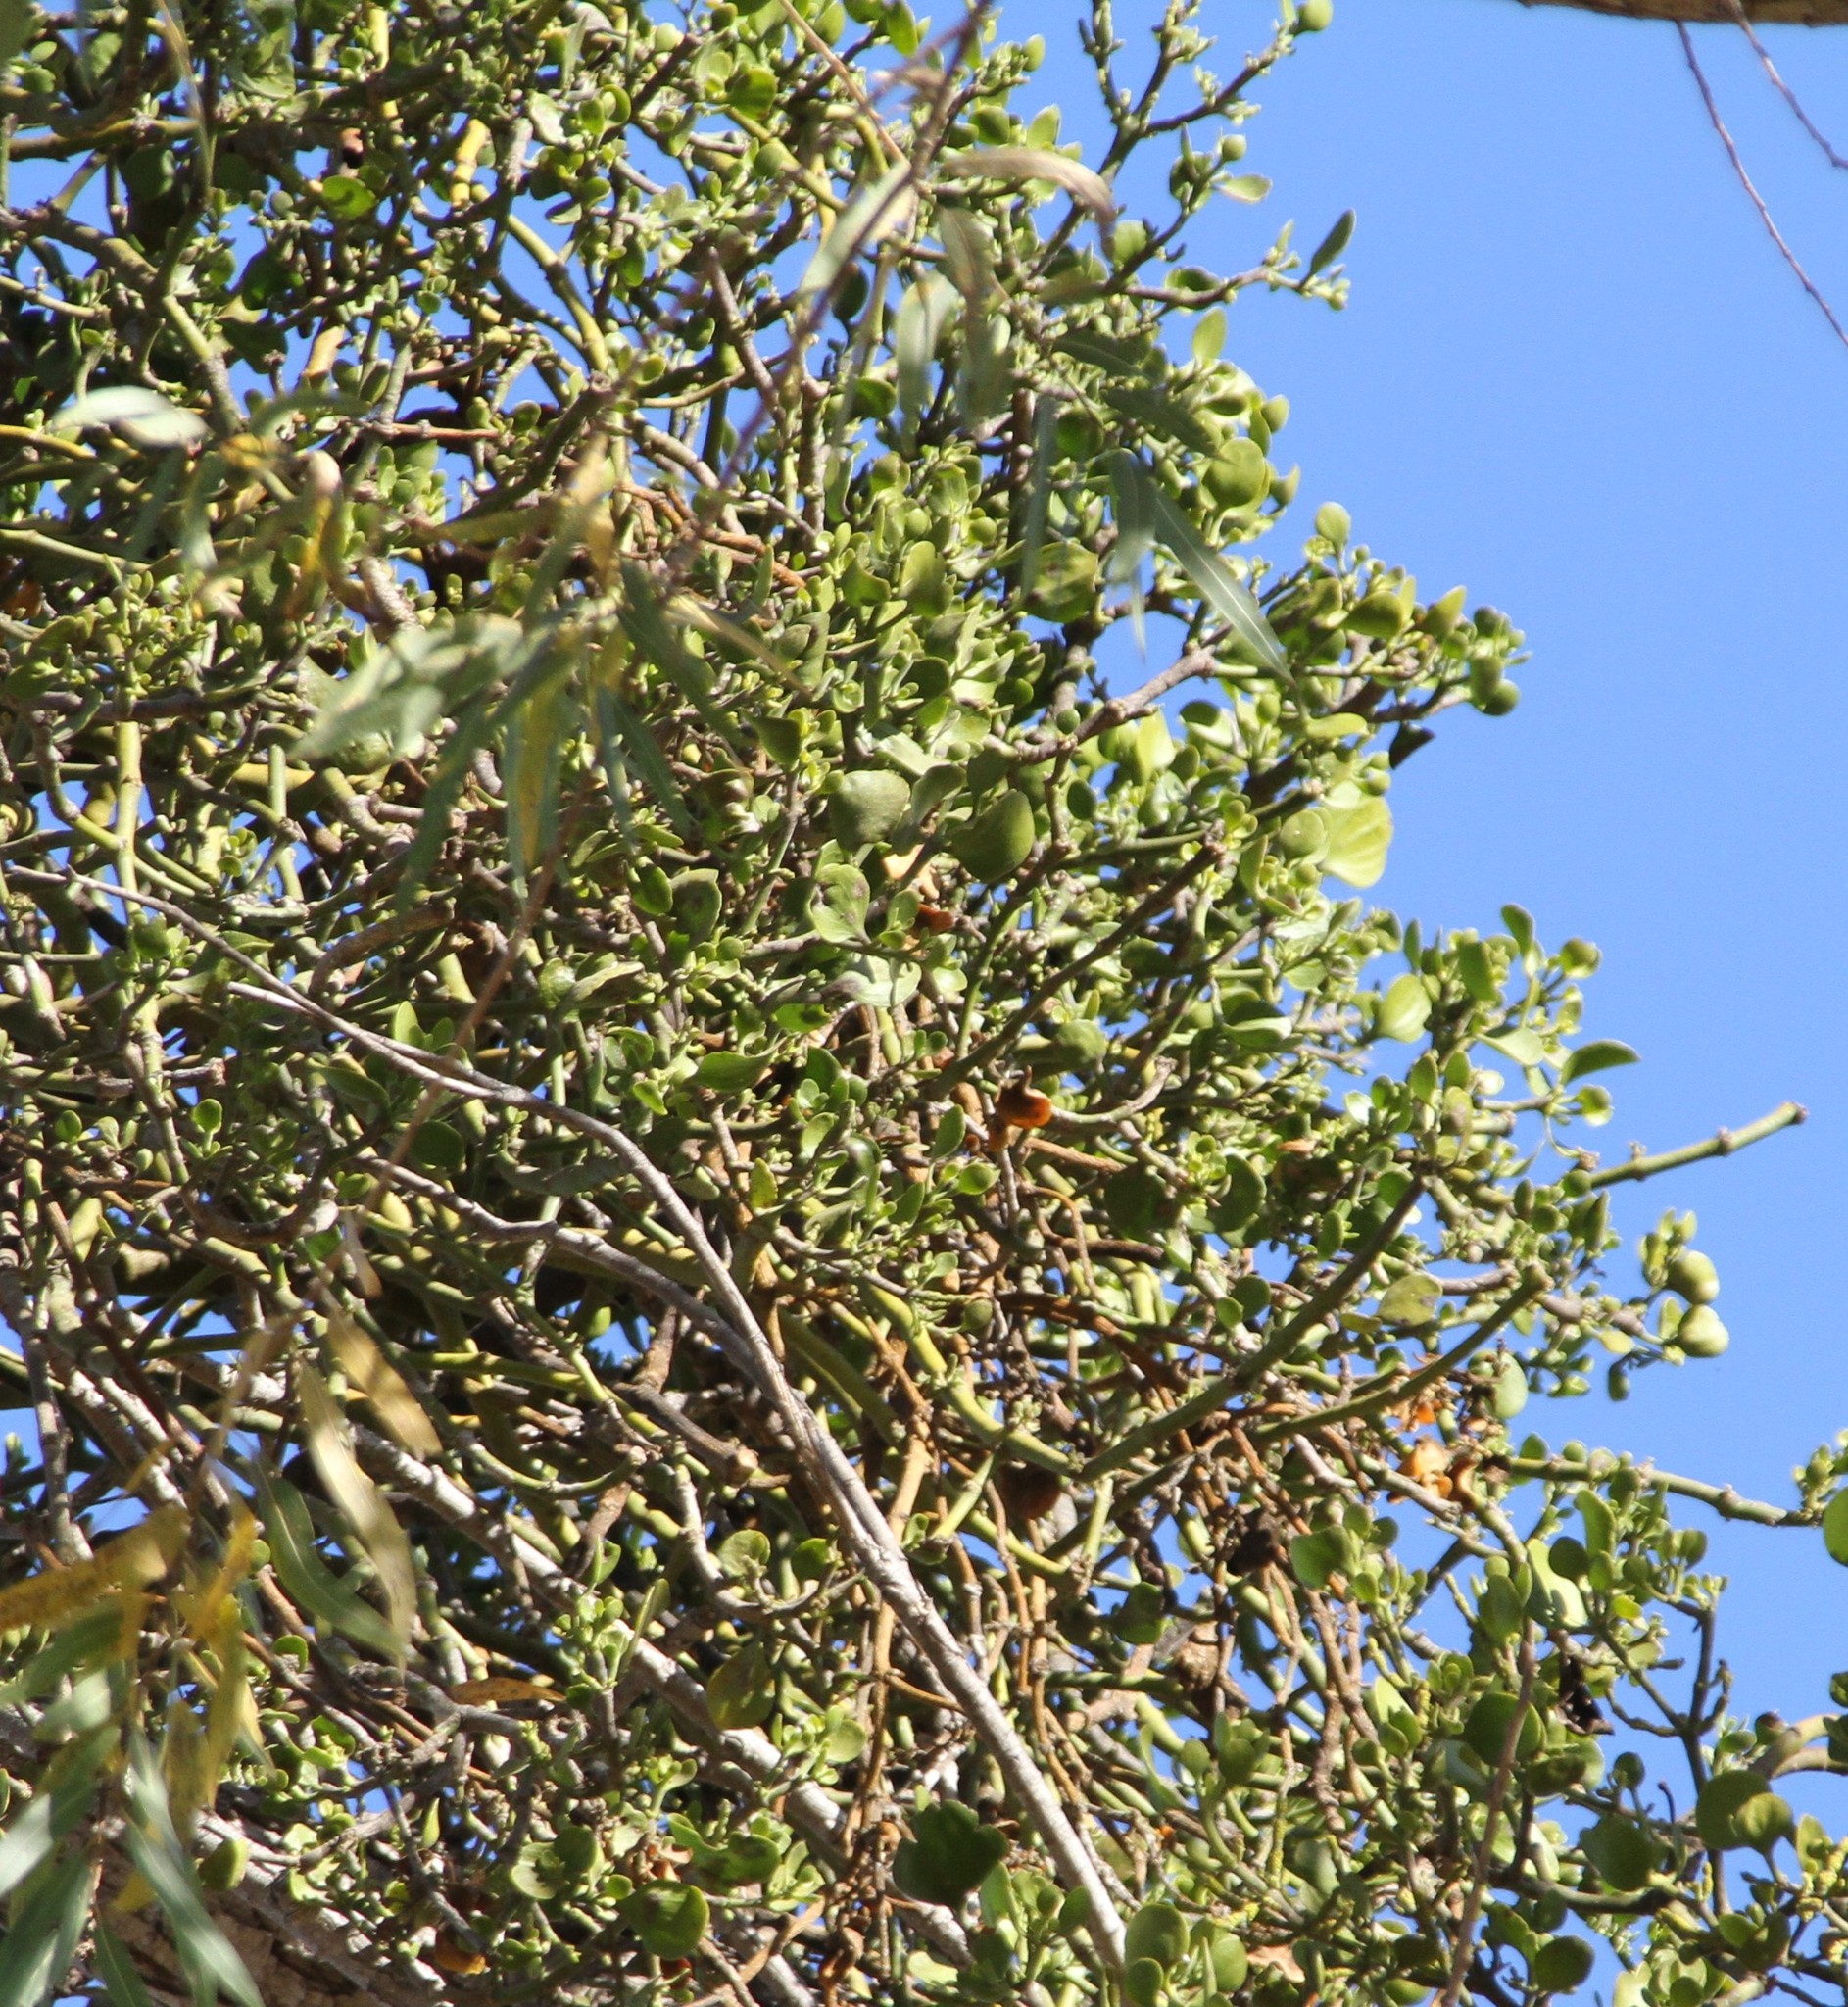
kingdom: Plantae
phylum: Tracheophyta
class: Magnoliopsida
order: Santalales
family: Viscaceae
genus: Phoradendron
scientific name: Phoradendron
